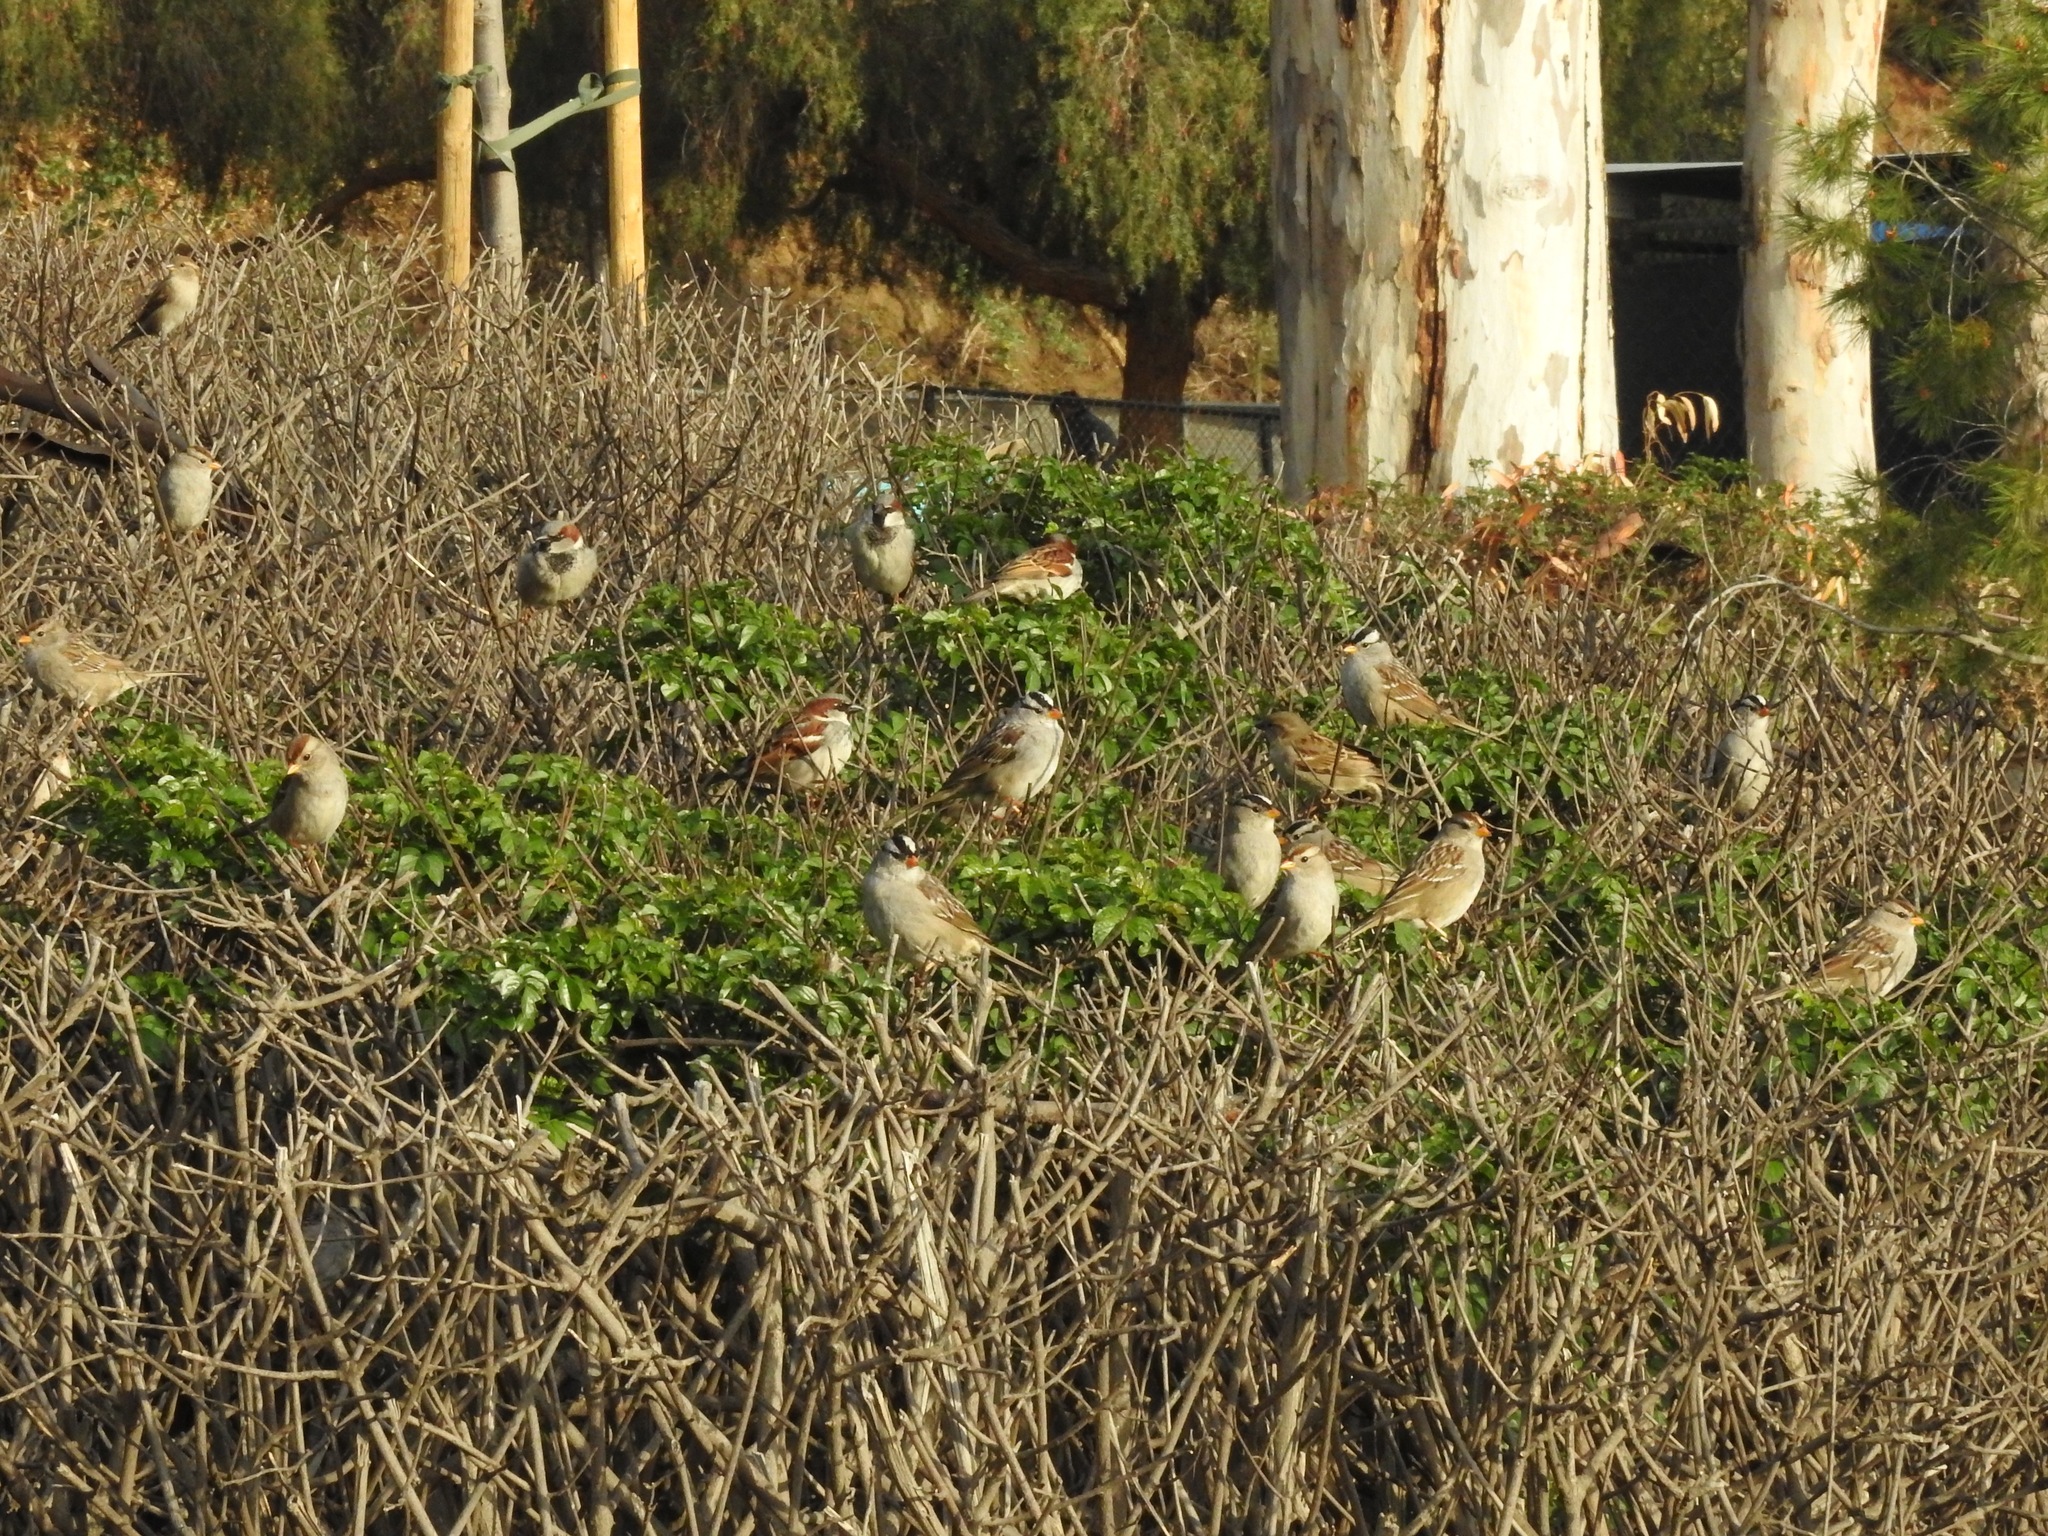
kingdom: Animalia
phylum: Chordata
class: Aves
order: Passeriformes
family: Passerellidae
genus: Zonotrichia
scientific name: Zonotrichia leucophrys
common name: White-crowned sparrow
